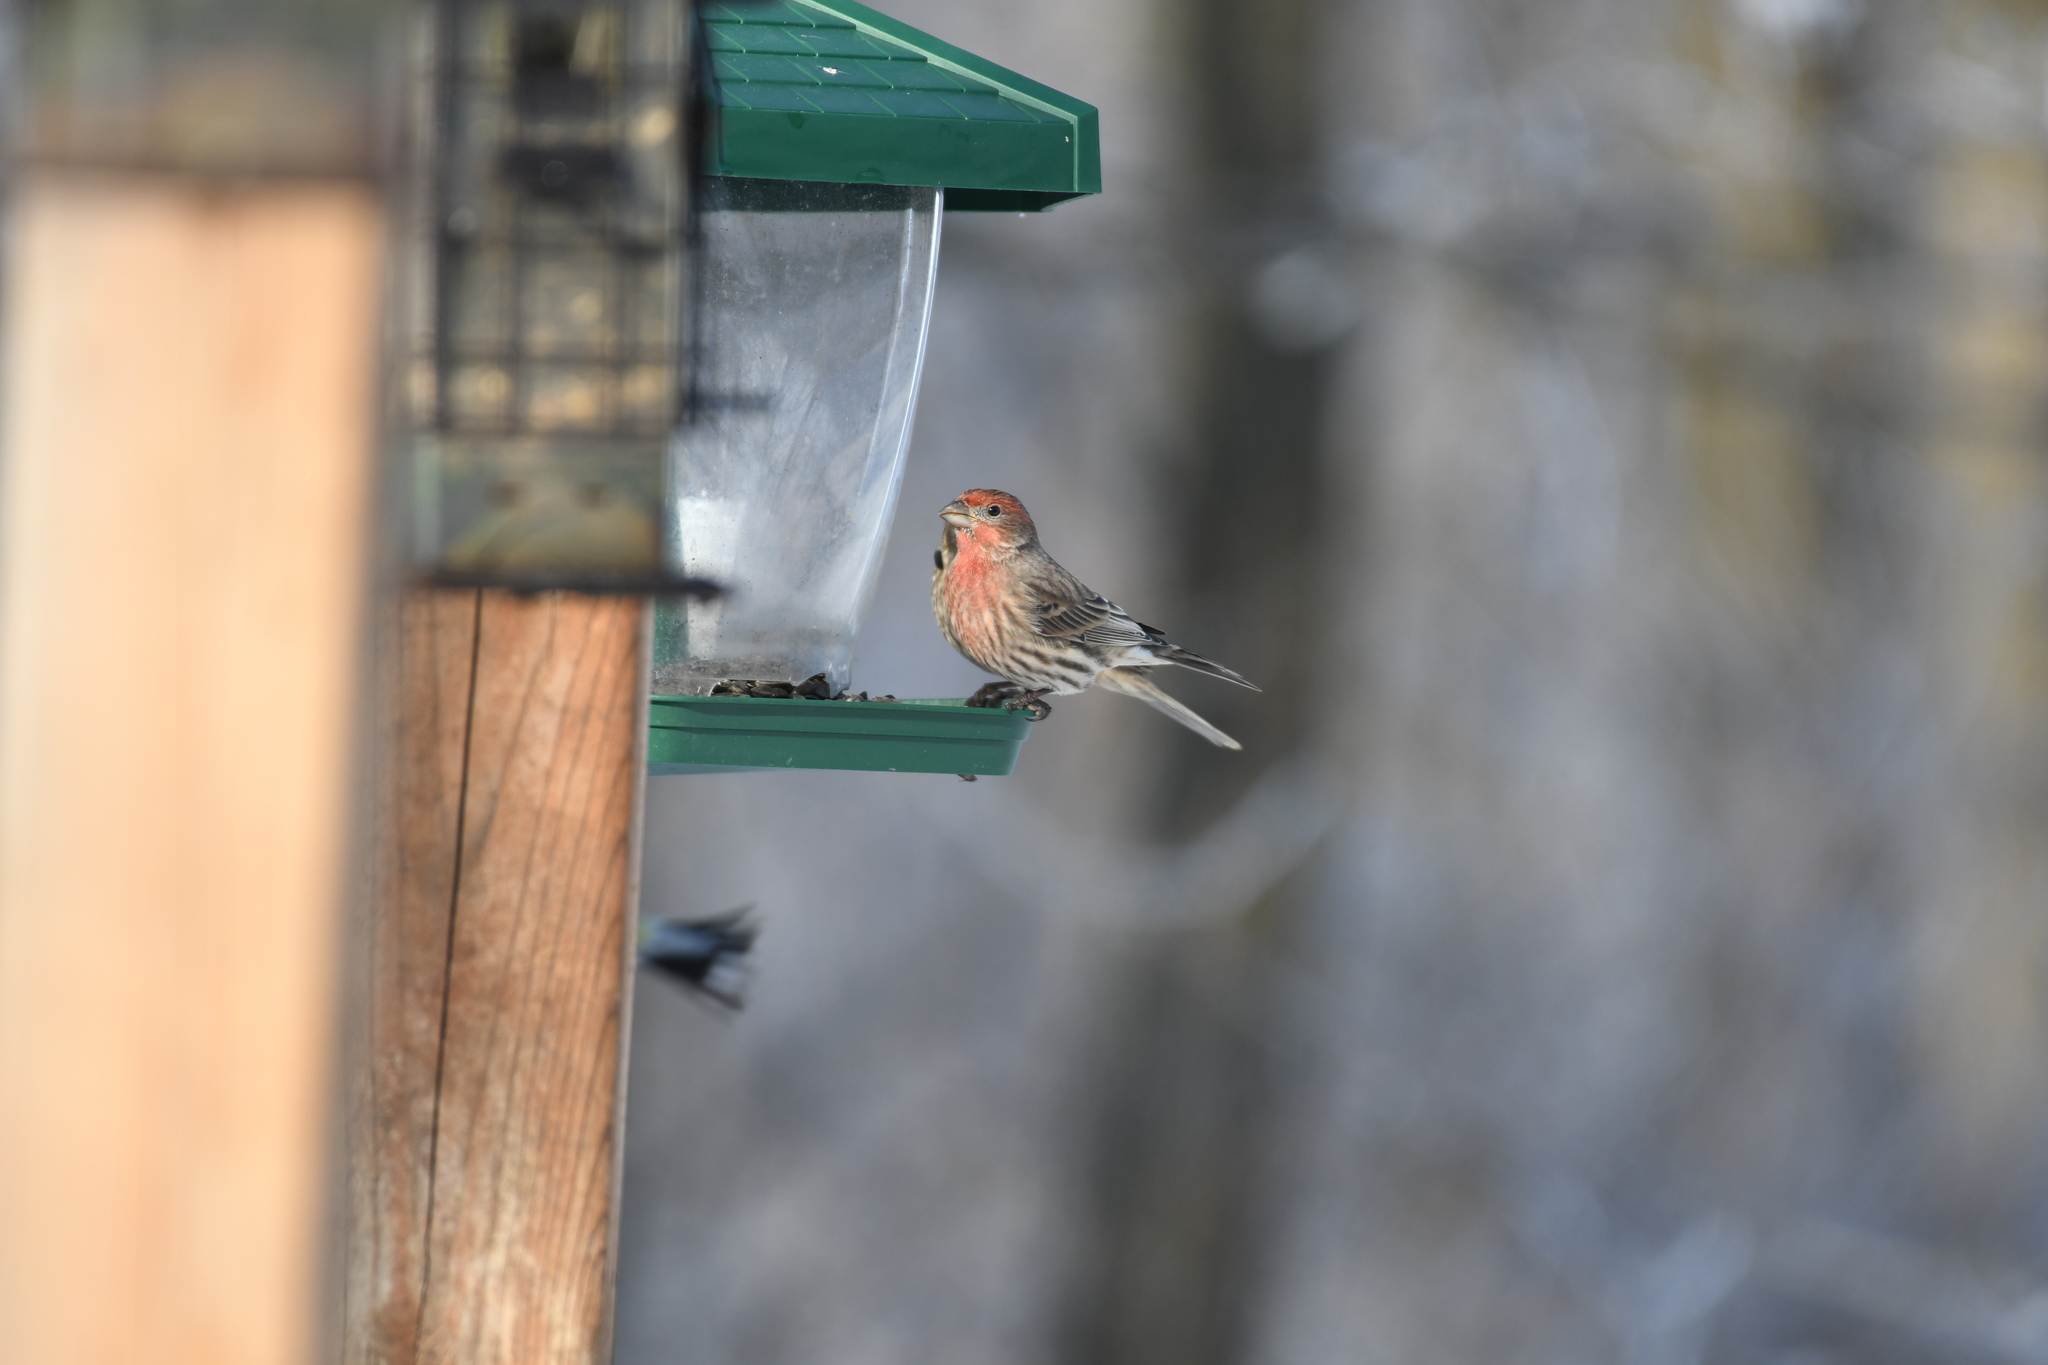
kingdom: Animalia
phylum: Chordata
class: Aves
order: Passeriformes
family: Fringillidae
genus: Haemorhous
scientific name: Haemorhous mexicanus
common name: House finch
